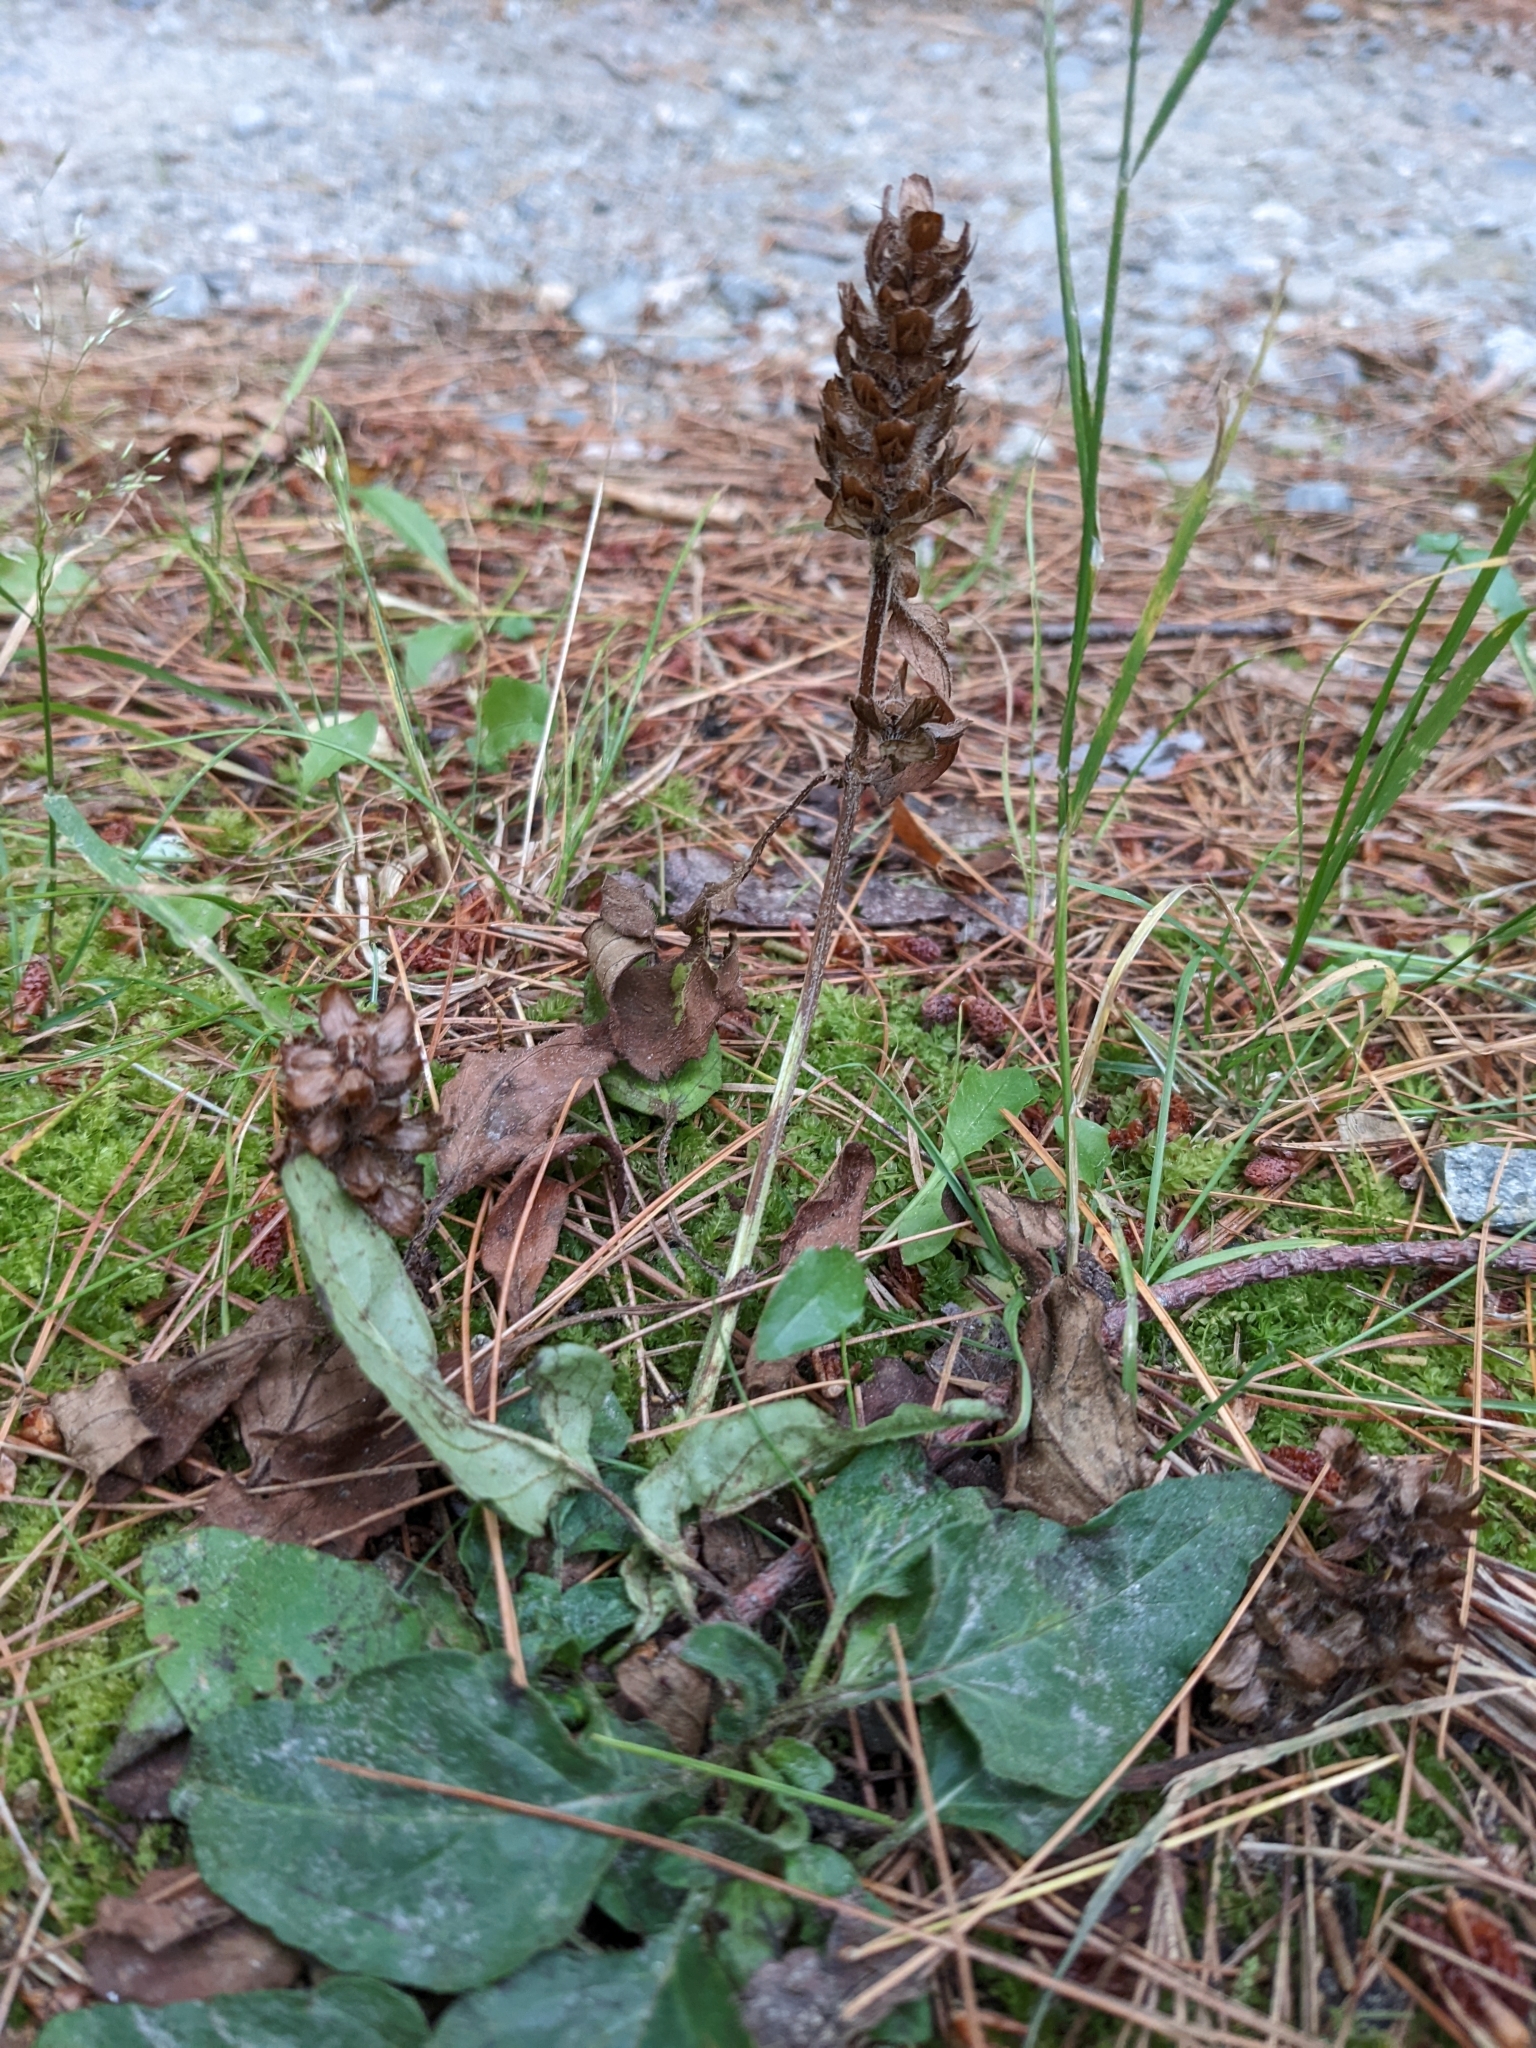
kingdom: Plantae
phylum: Tracheophyta
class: Magnoliopsida
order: Lamiales
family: Lamiaceae
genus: Prunella
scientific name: Prunella vulgaris
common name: Heal-all
